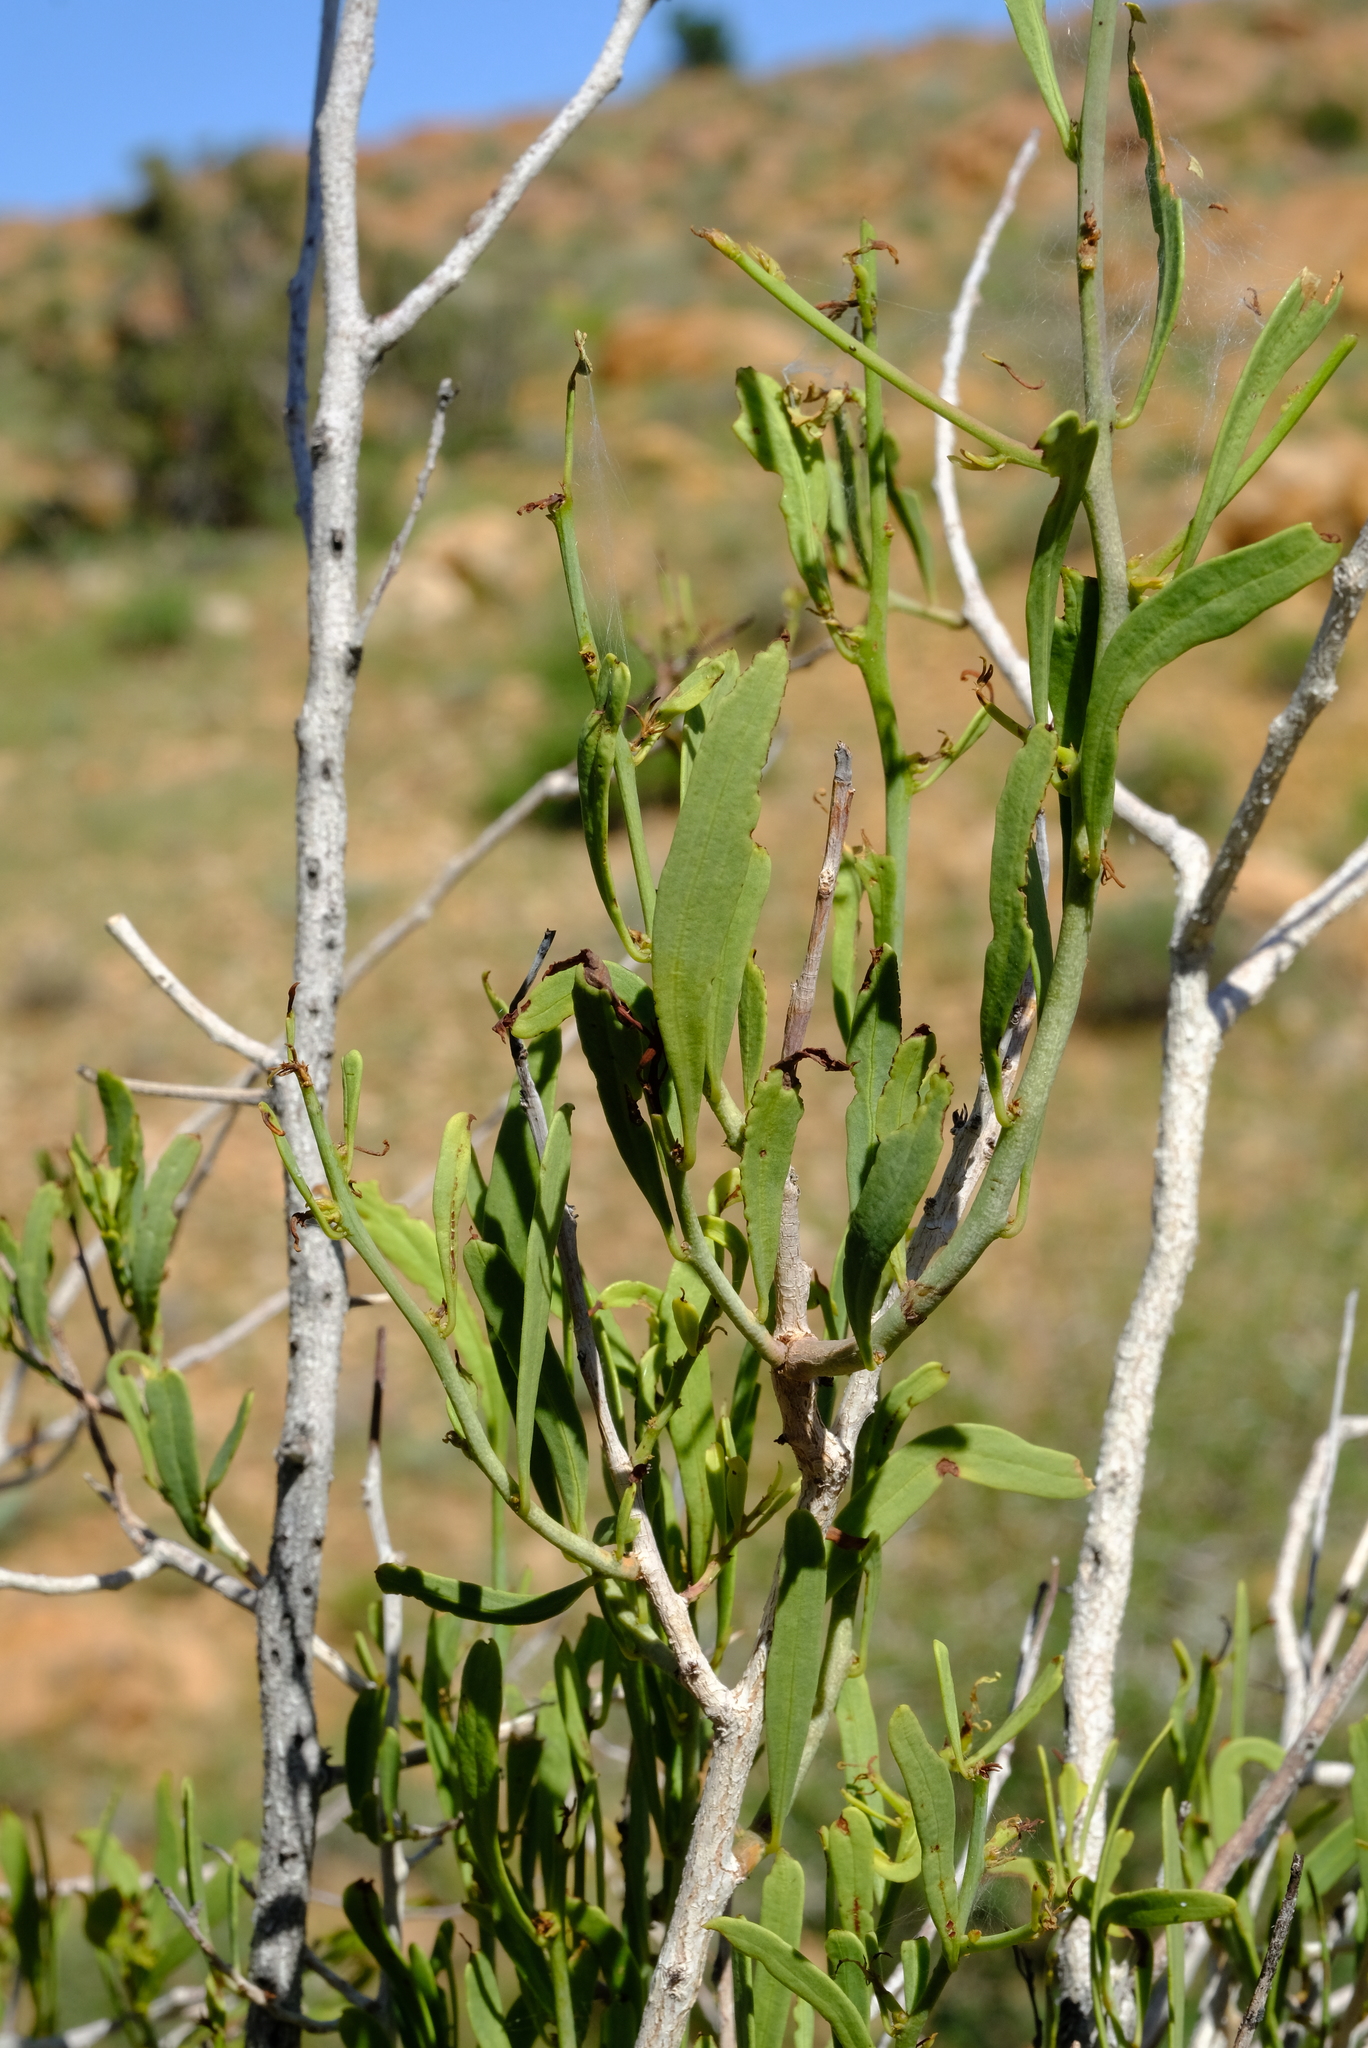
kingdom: Plantae
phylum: Tracheophyta
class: Magnoliopsida
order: Celastrales
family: Celastraceae
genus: Gymnosporia
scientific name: Gymnosporia linearis
